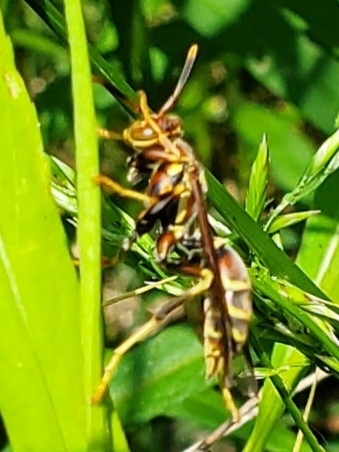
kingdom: Animalia
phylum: Arthropoda
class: Insecta
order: Hymenoptera
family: Eumenidae
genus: Polistes
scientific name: Polistes exclamans
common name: Paper wasp
